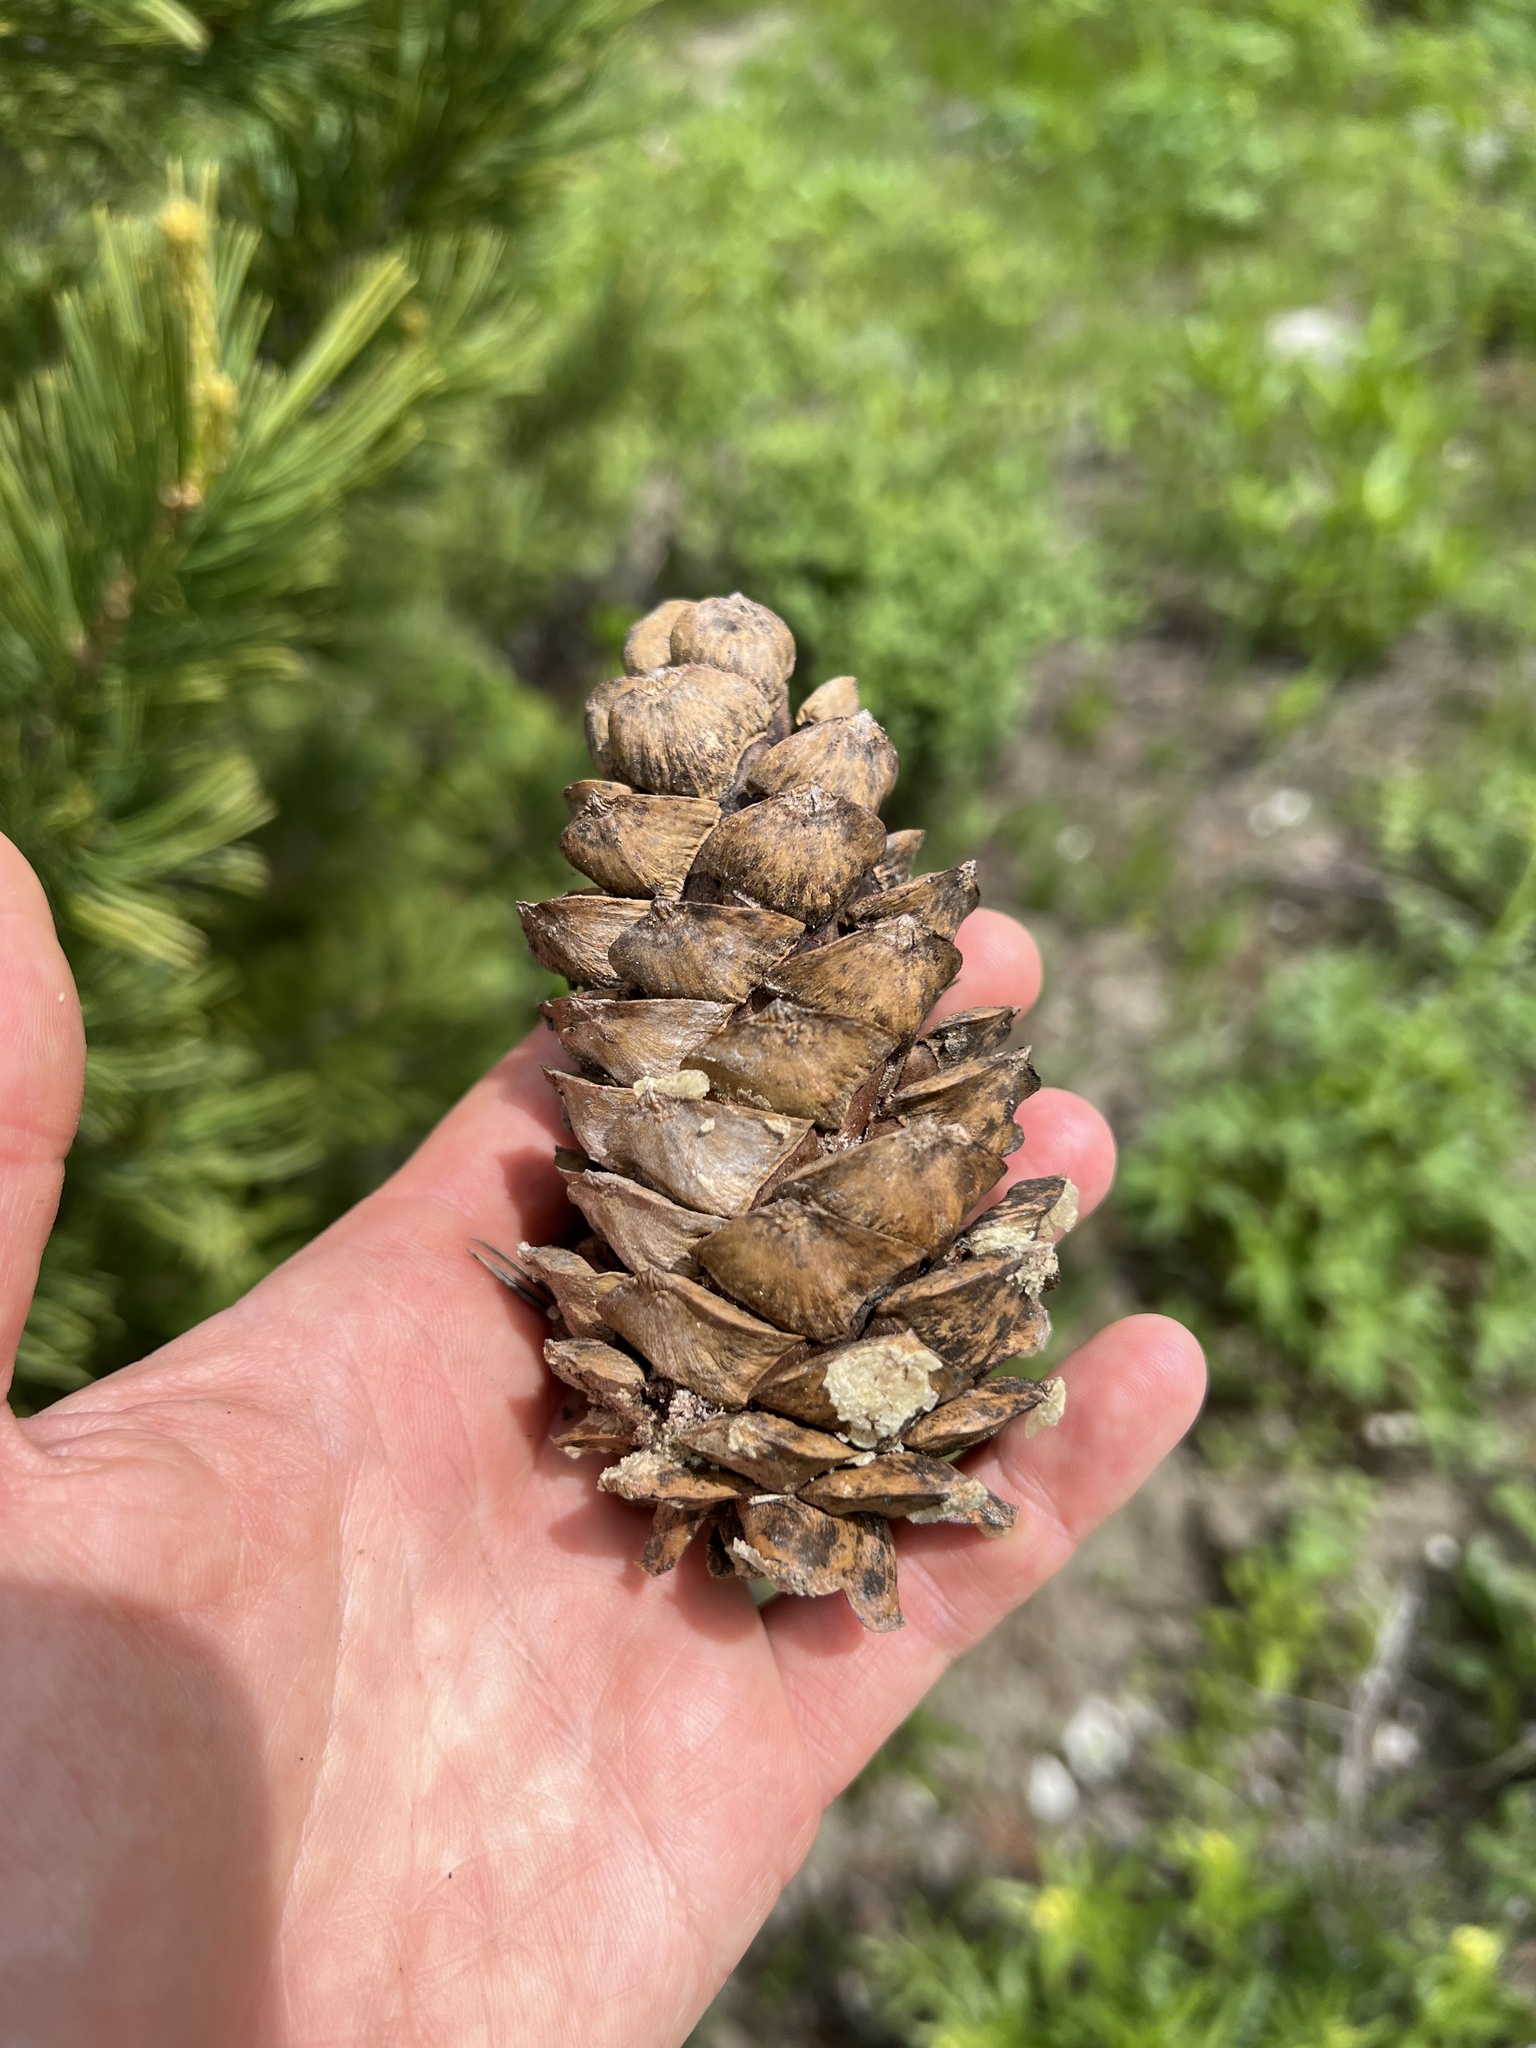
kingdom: Plantae
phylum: Tracheophyta
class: Pinopsida
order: Pinales
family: Pinaceae
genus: Pinus
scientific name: Pinus flexilis
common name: Limber pine
